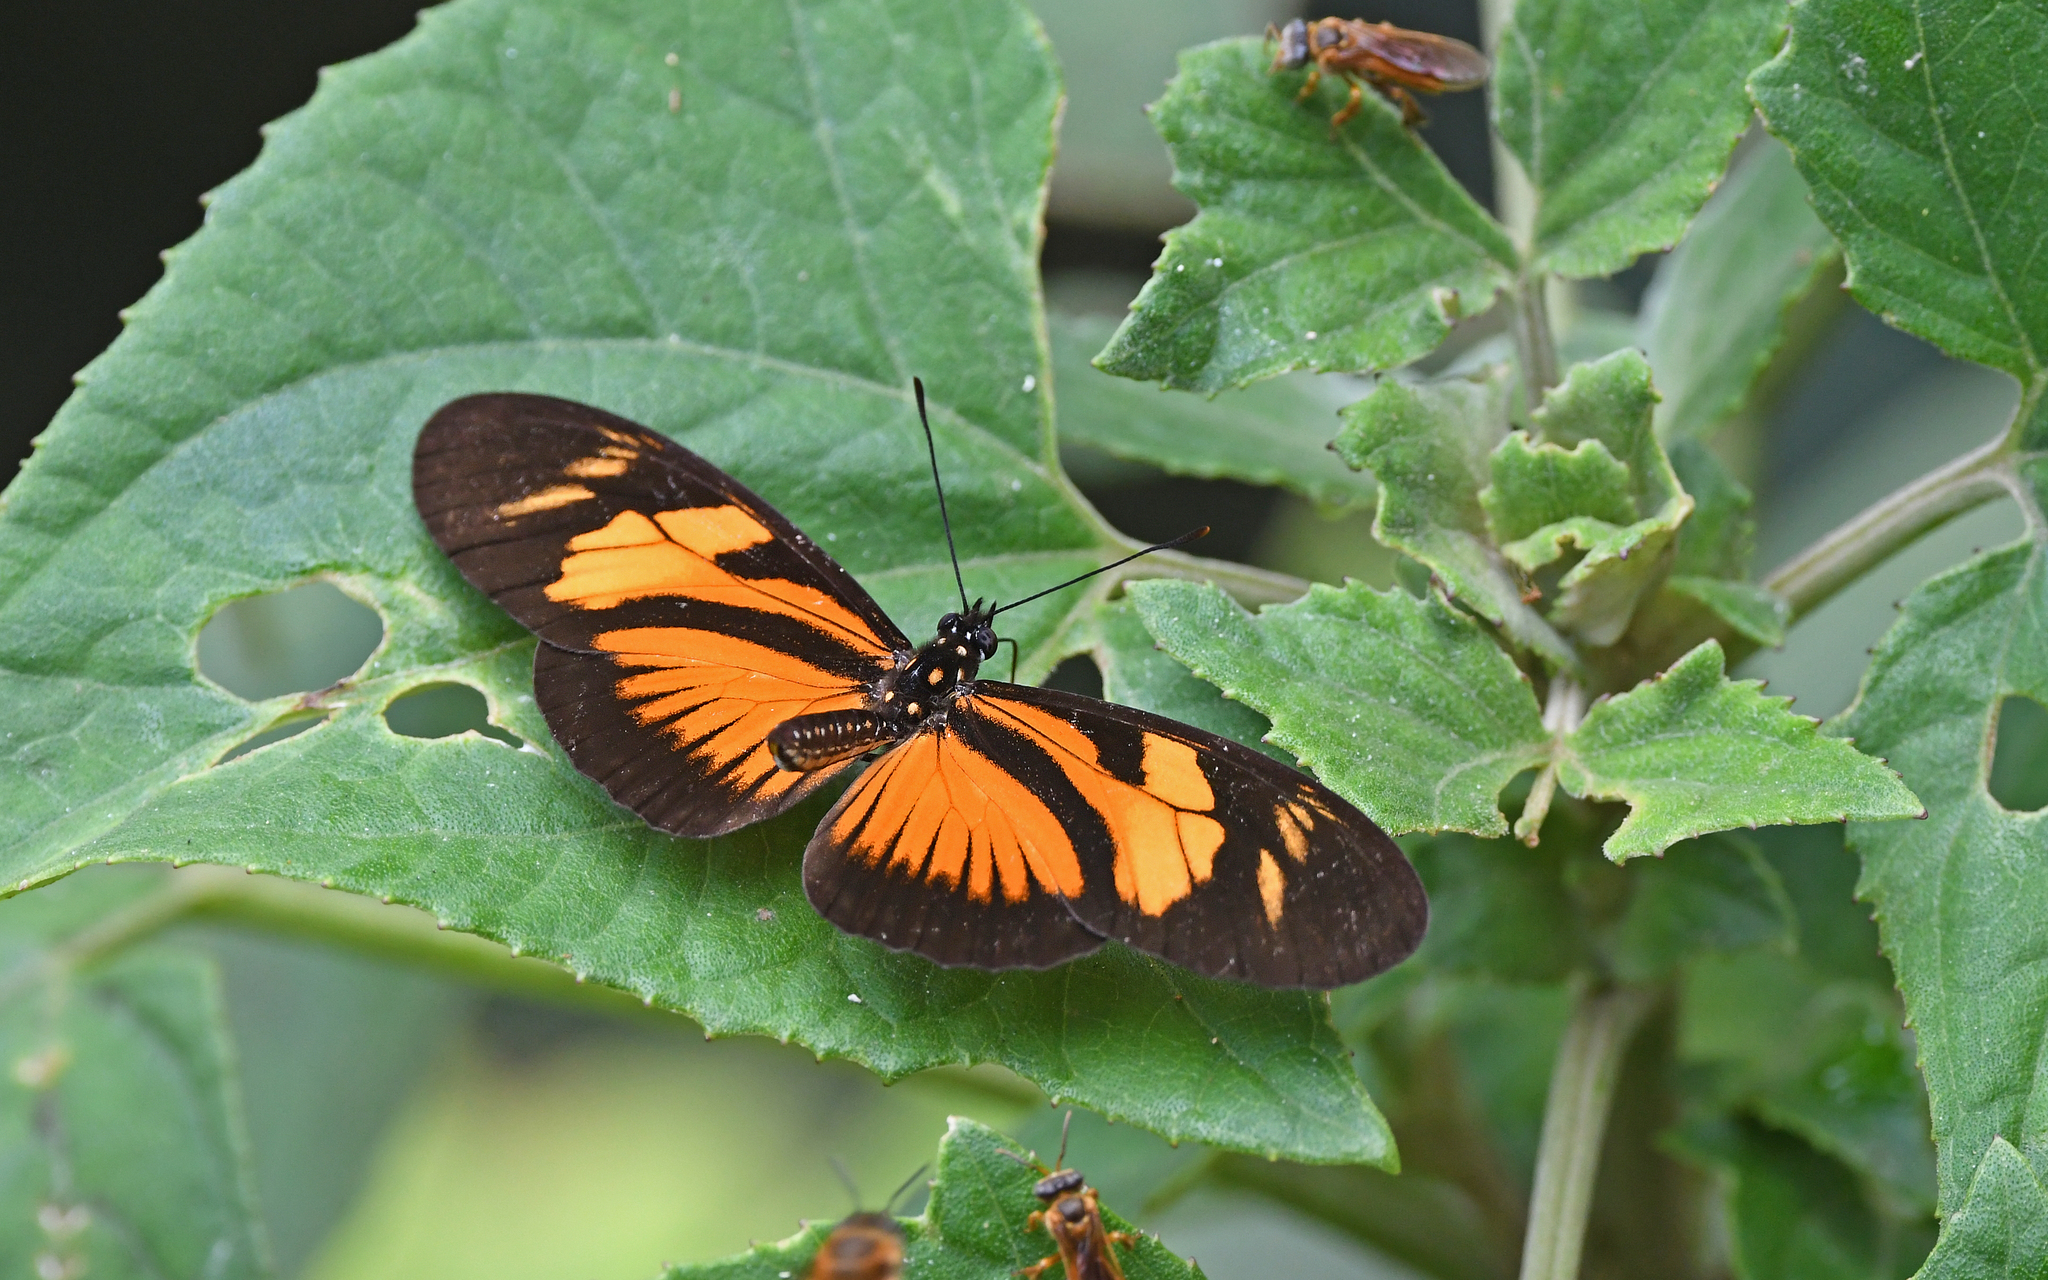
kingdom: Animalia
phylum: Arthropoda
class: Insecta
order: Lepidoptera
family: Nymphalidae
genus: Eueides
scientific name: Eueides vibilia
